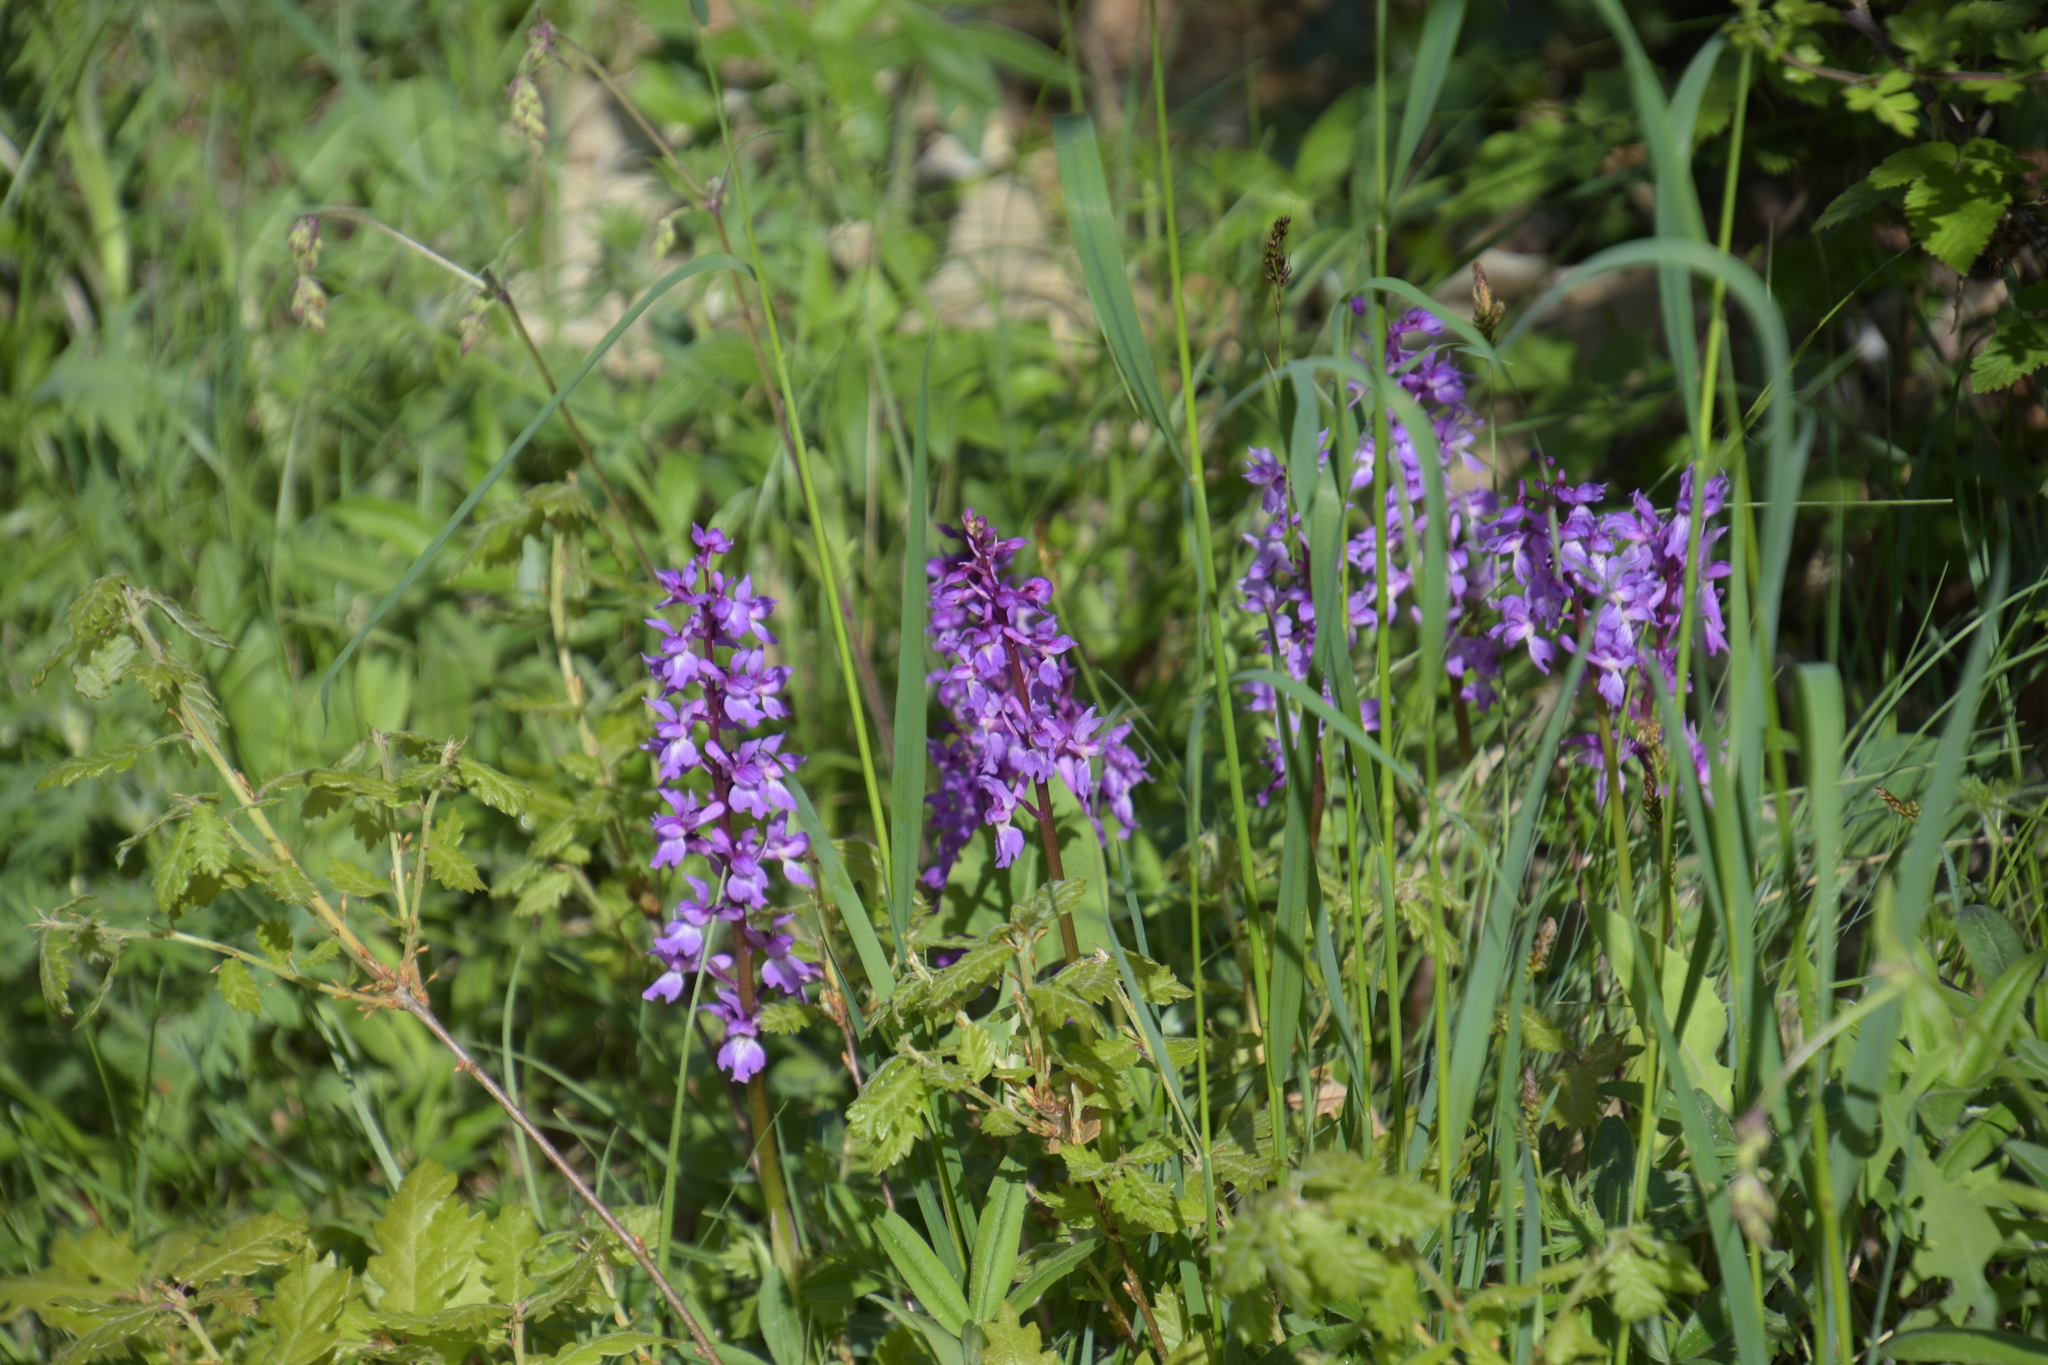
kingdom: Plantae
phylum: Tracheophyta
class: Liliopsida
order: Asparagales
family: Orchidaceae
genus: Orchis
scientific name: Orchis mascula
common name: Early-purple orchid
